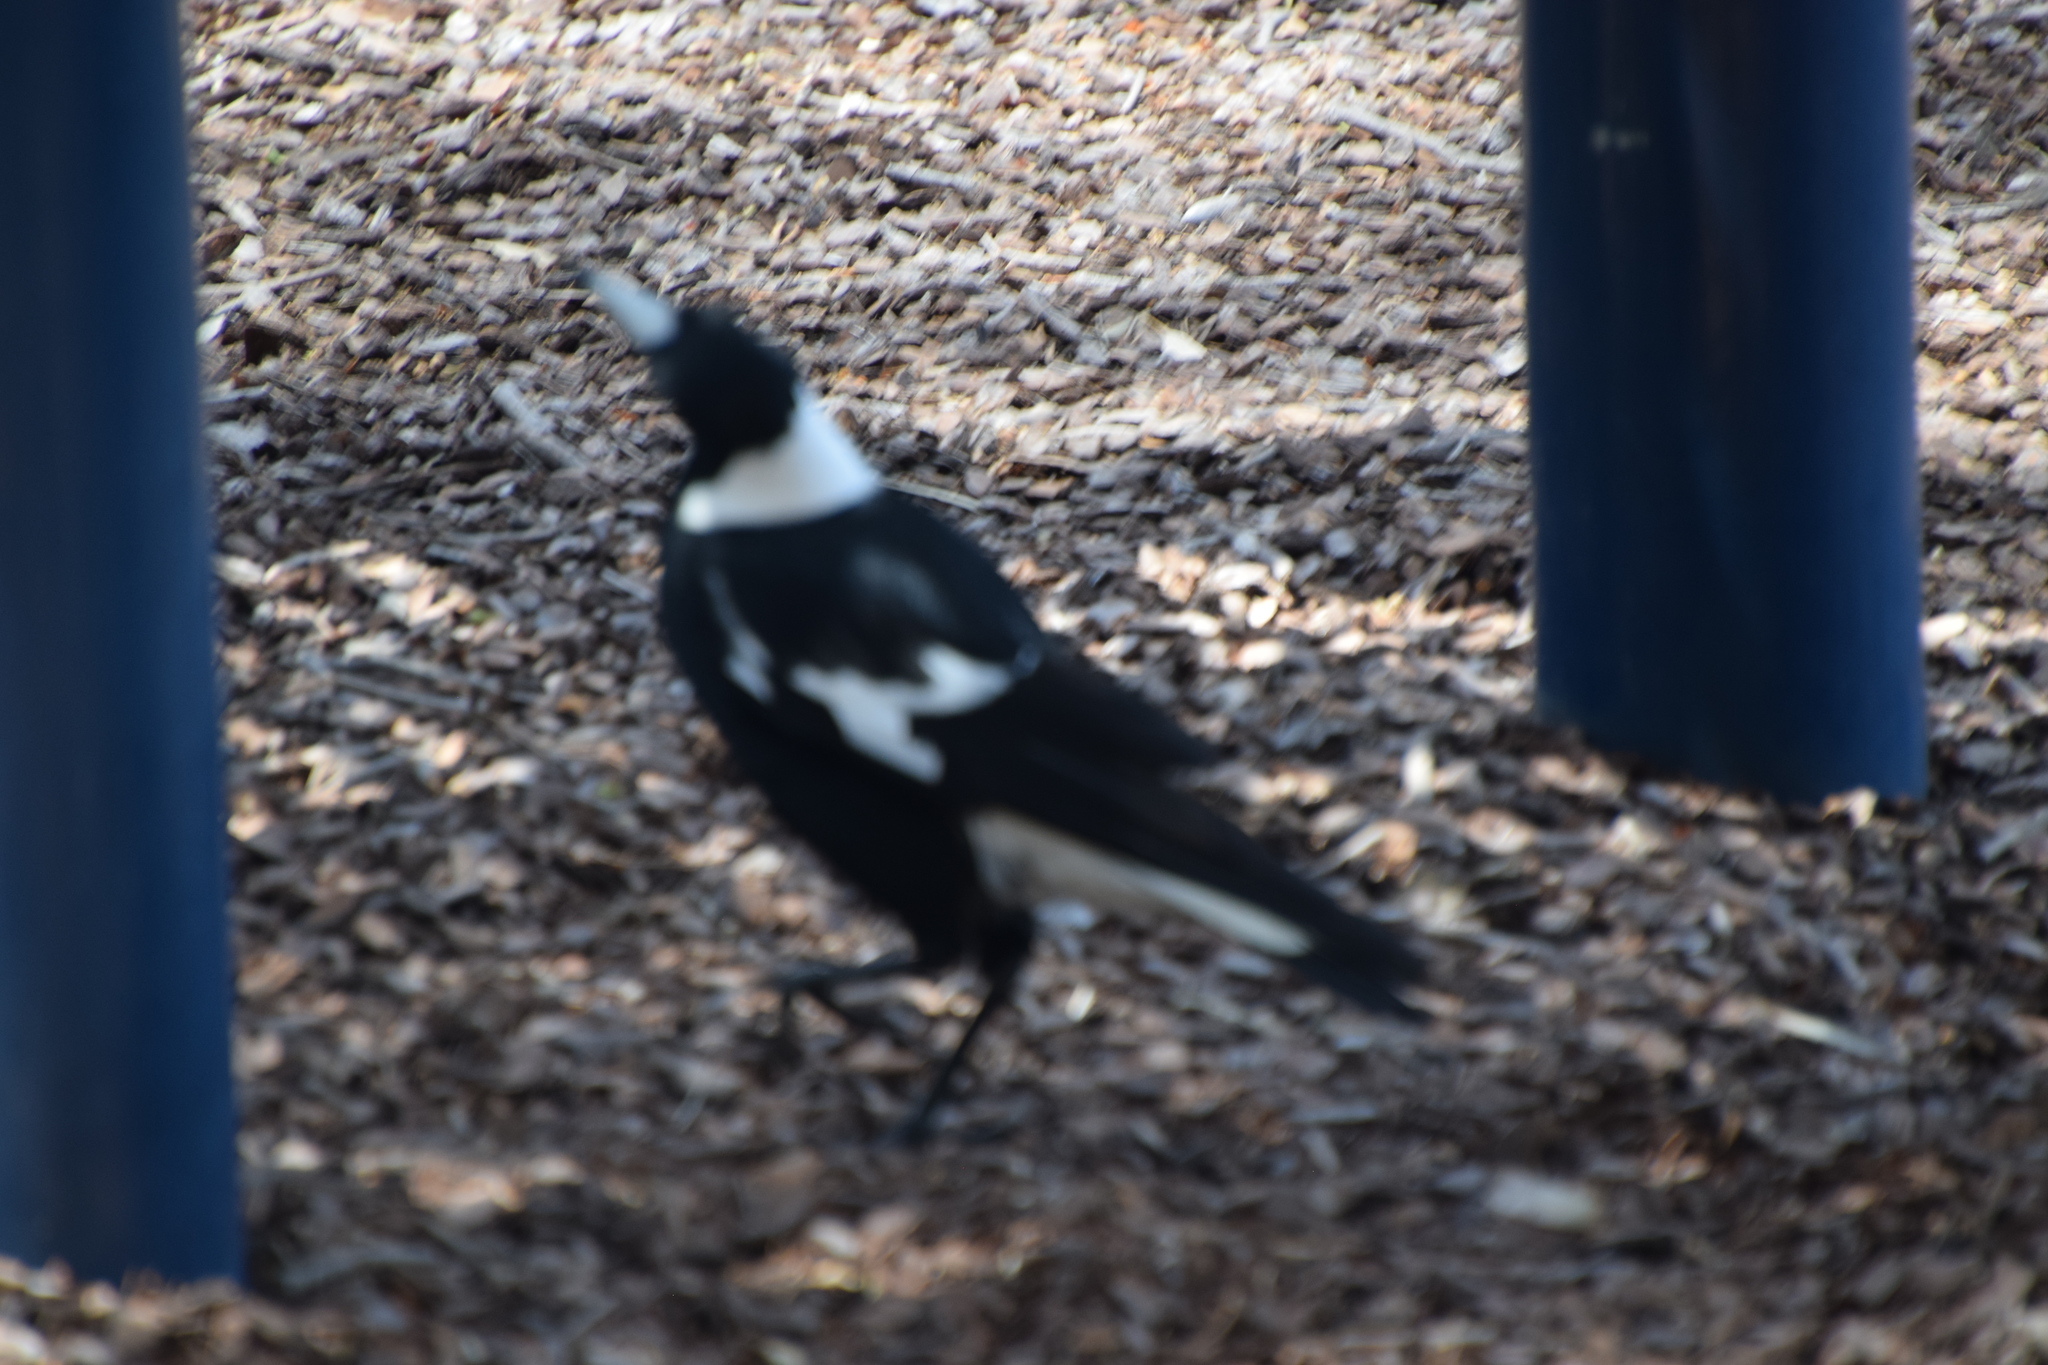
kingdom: Animalia
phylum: Chordata
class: Aves
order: Passeriformes
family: Cracticidae
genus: Gymnorhina
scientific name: Gymnorhina tibicen
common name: Australian magpie
